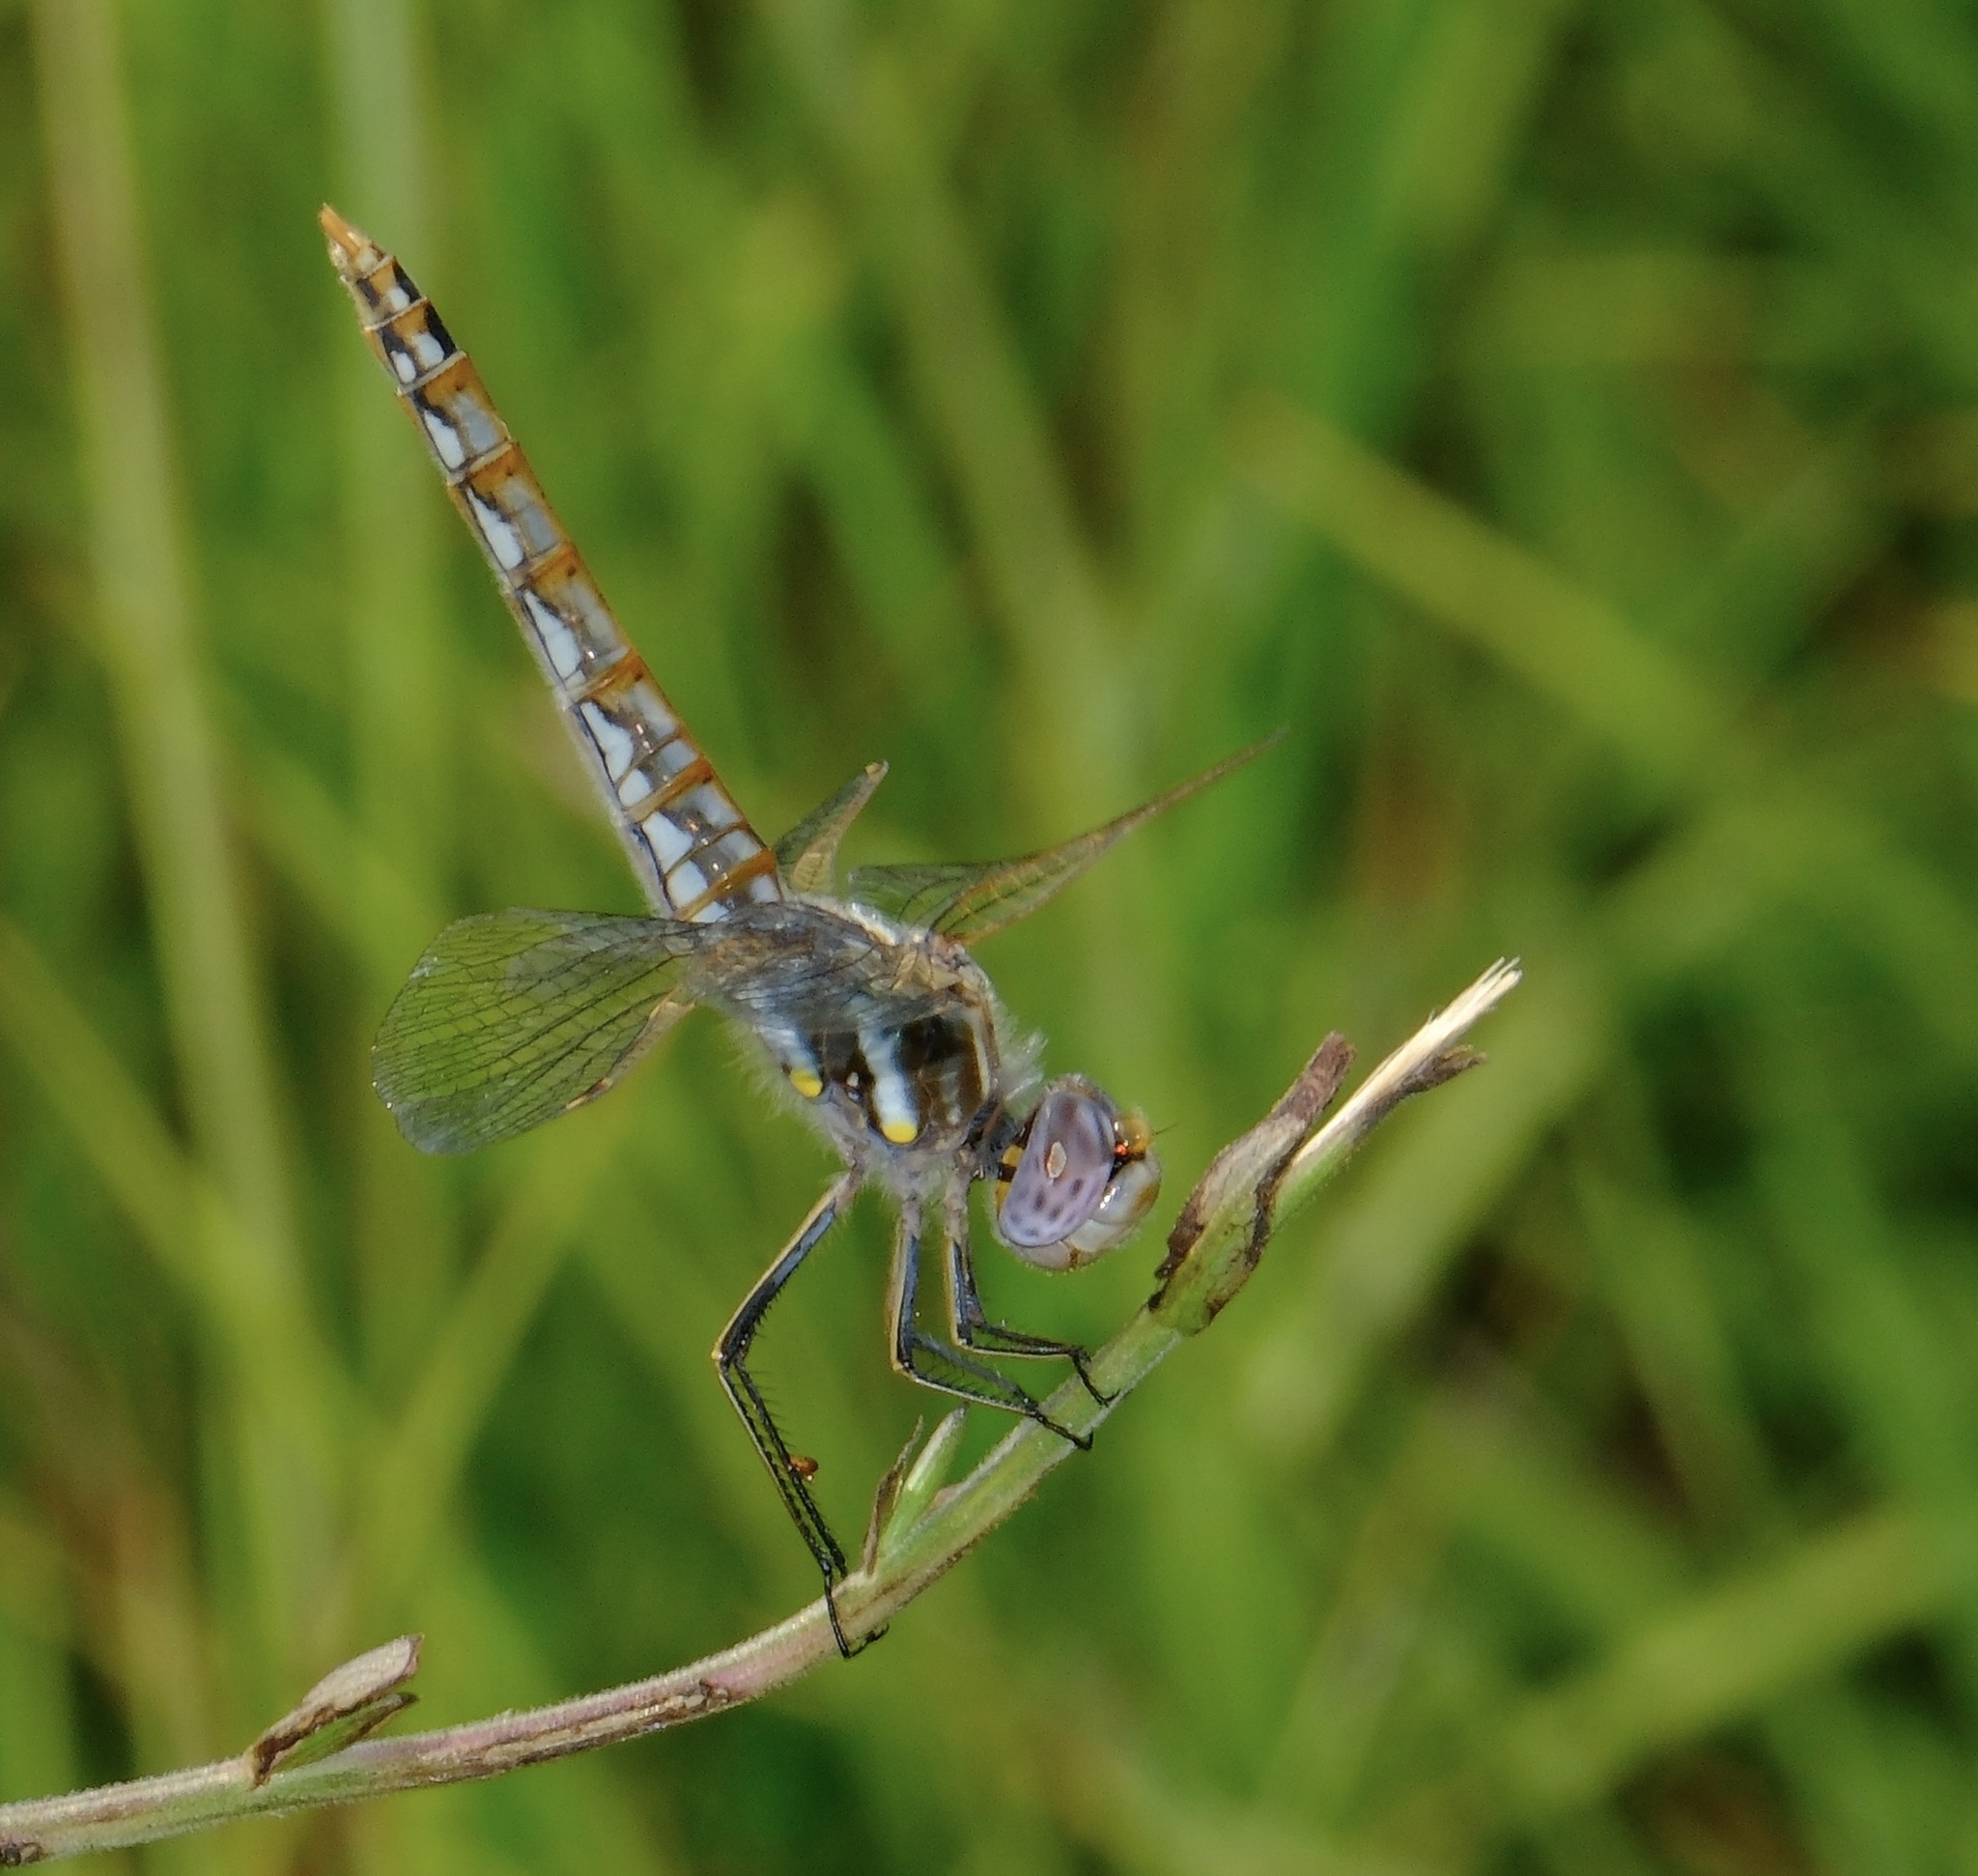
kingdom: Animalia
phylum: Arthropoda
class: Insecta
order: Odonata
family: Libellulidae
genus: Sympetrum
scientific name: Sympetrum corruptum
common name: Variegated meadowhawk
